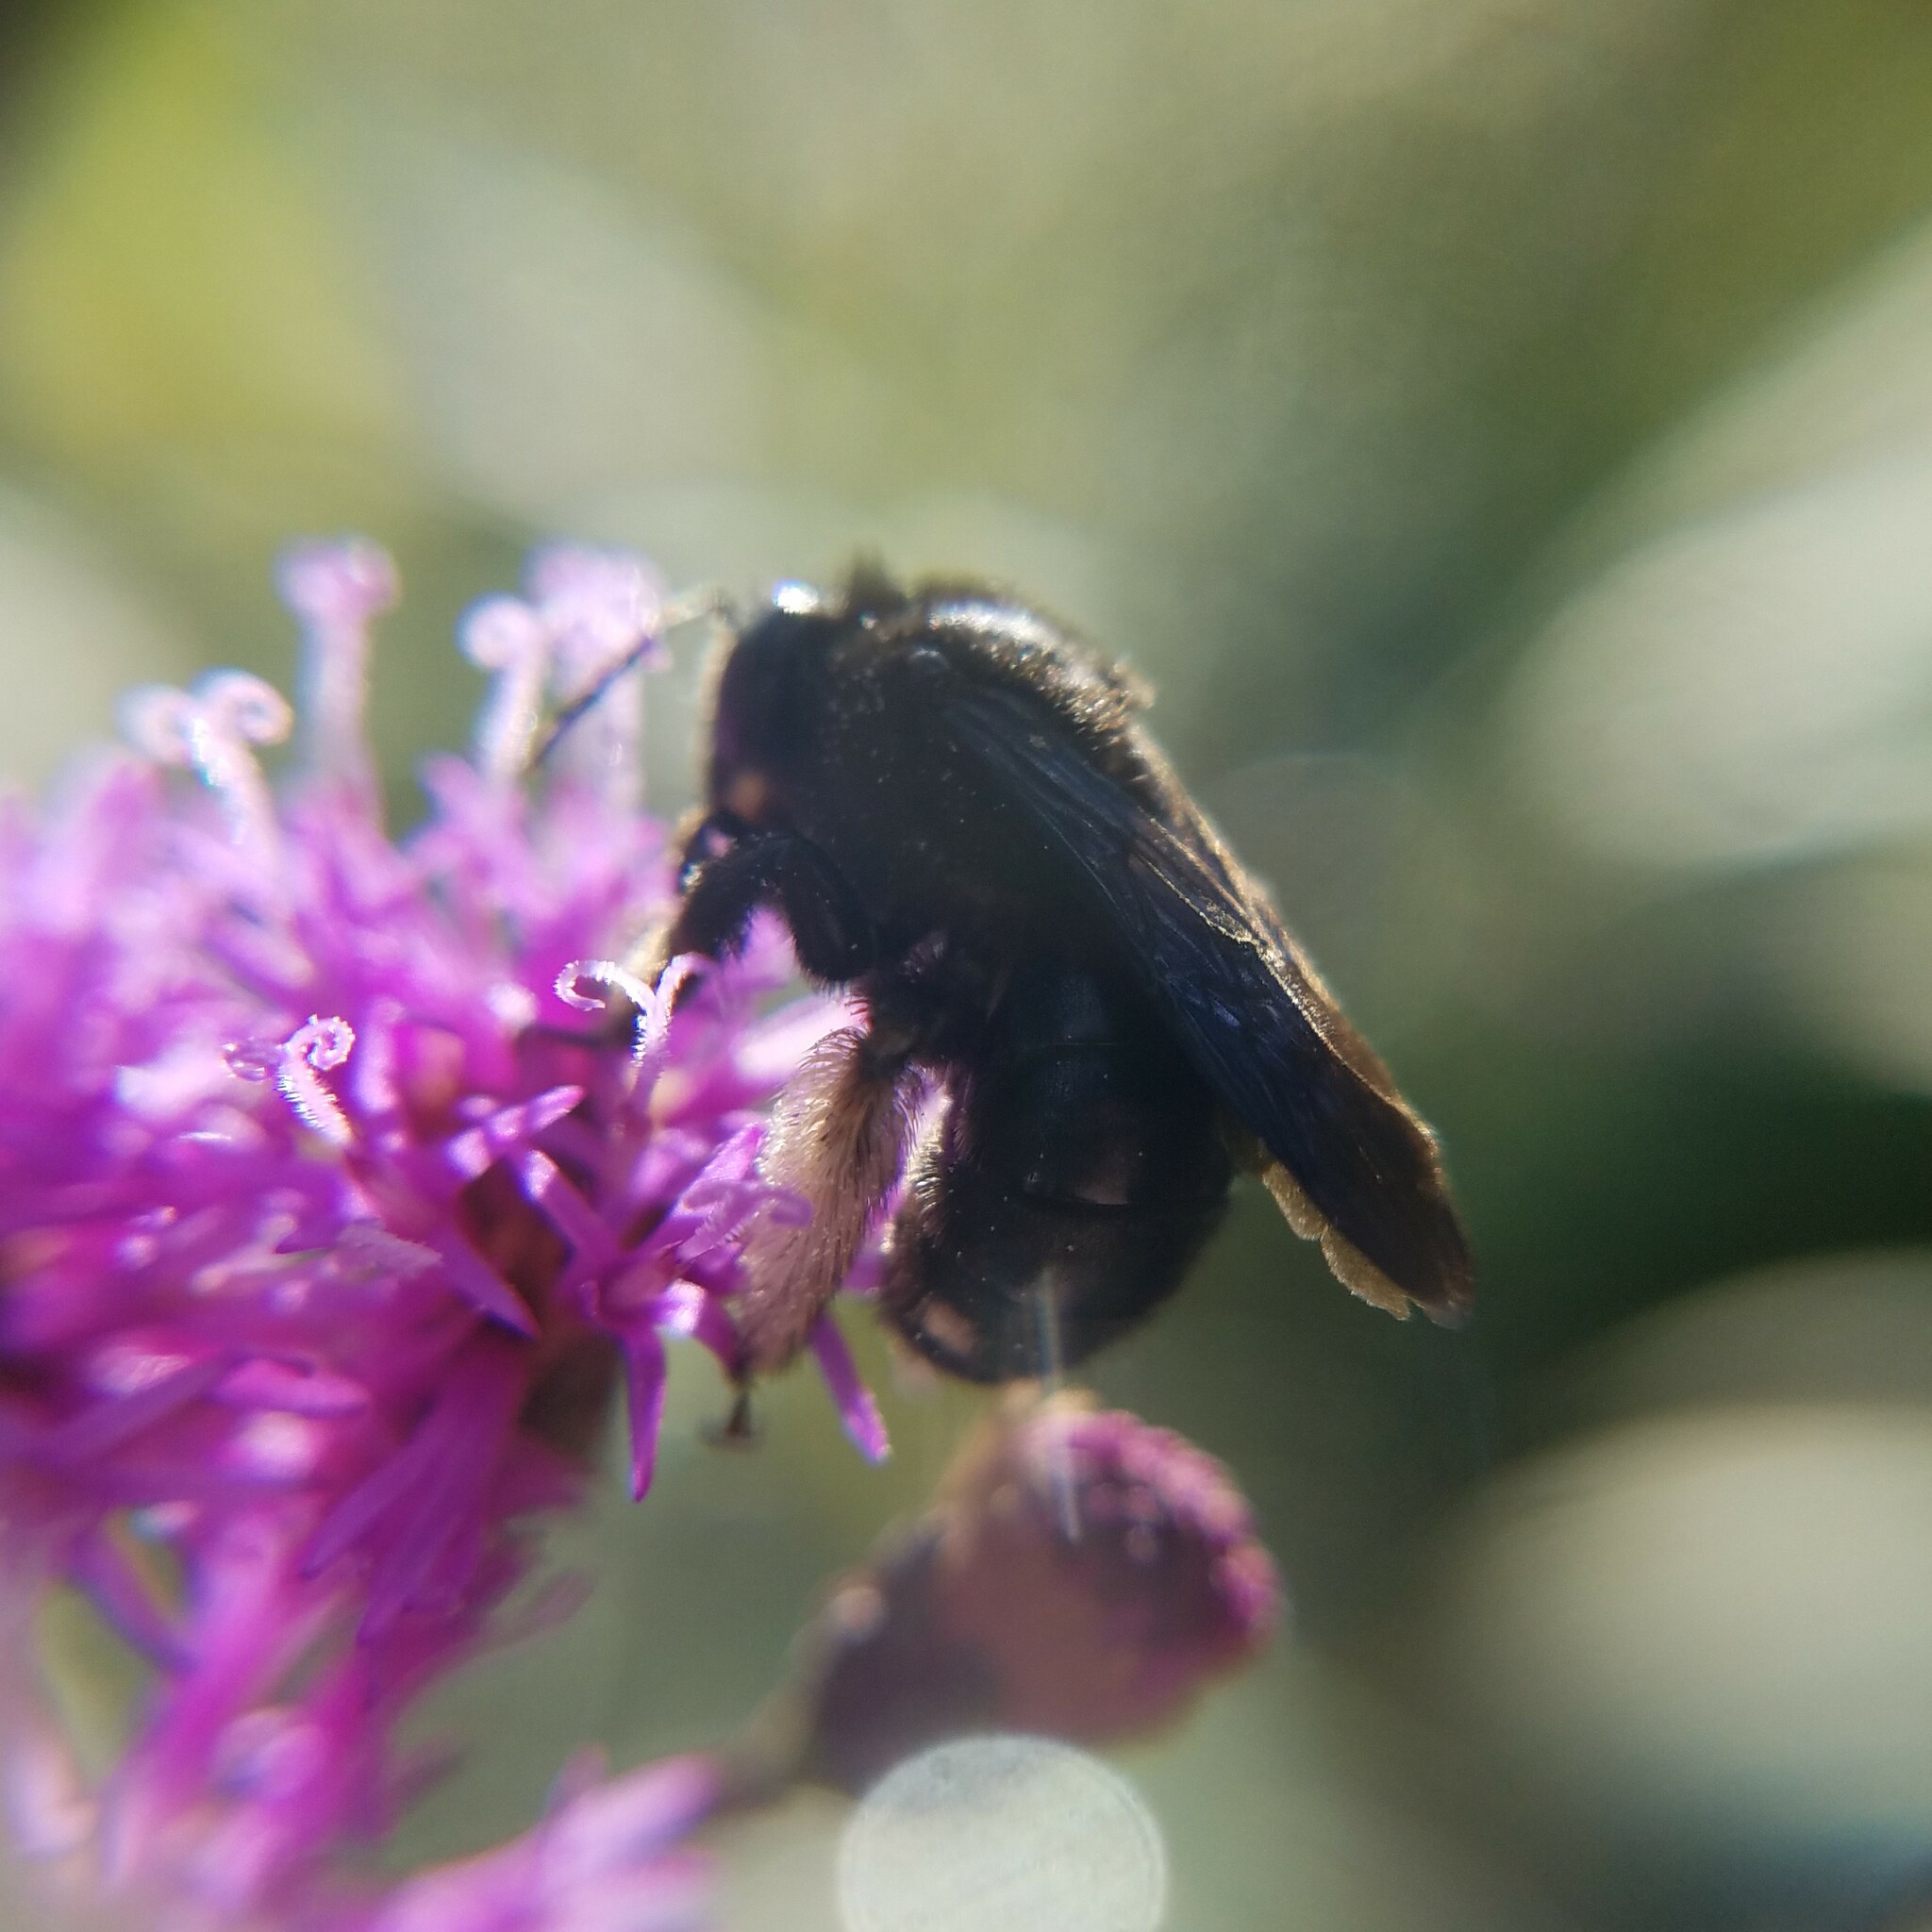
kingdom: Animalia
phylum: Arthropoda
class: Insecta
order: Hymenoptera
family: Apidae
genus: Melissodes
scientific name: Melissodes bimaculatus
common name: Two-spotted long-horned bee
